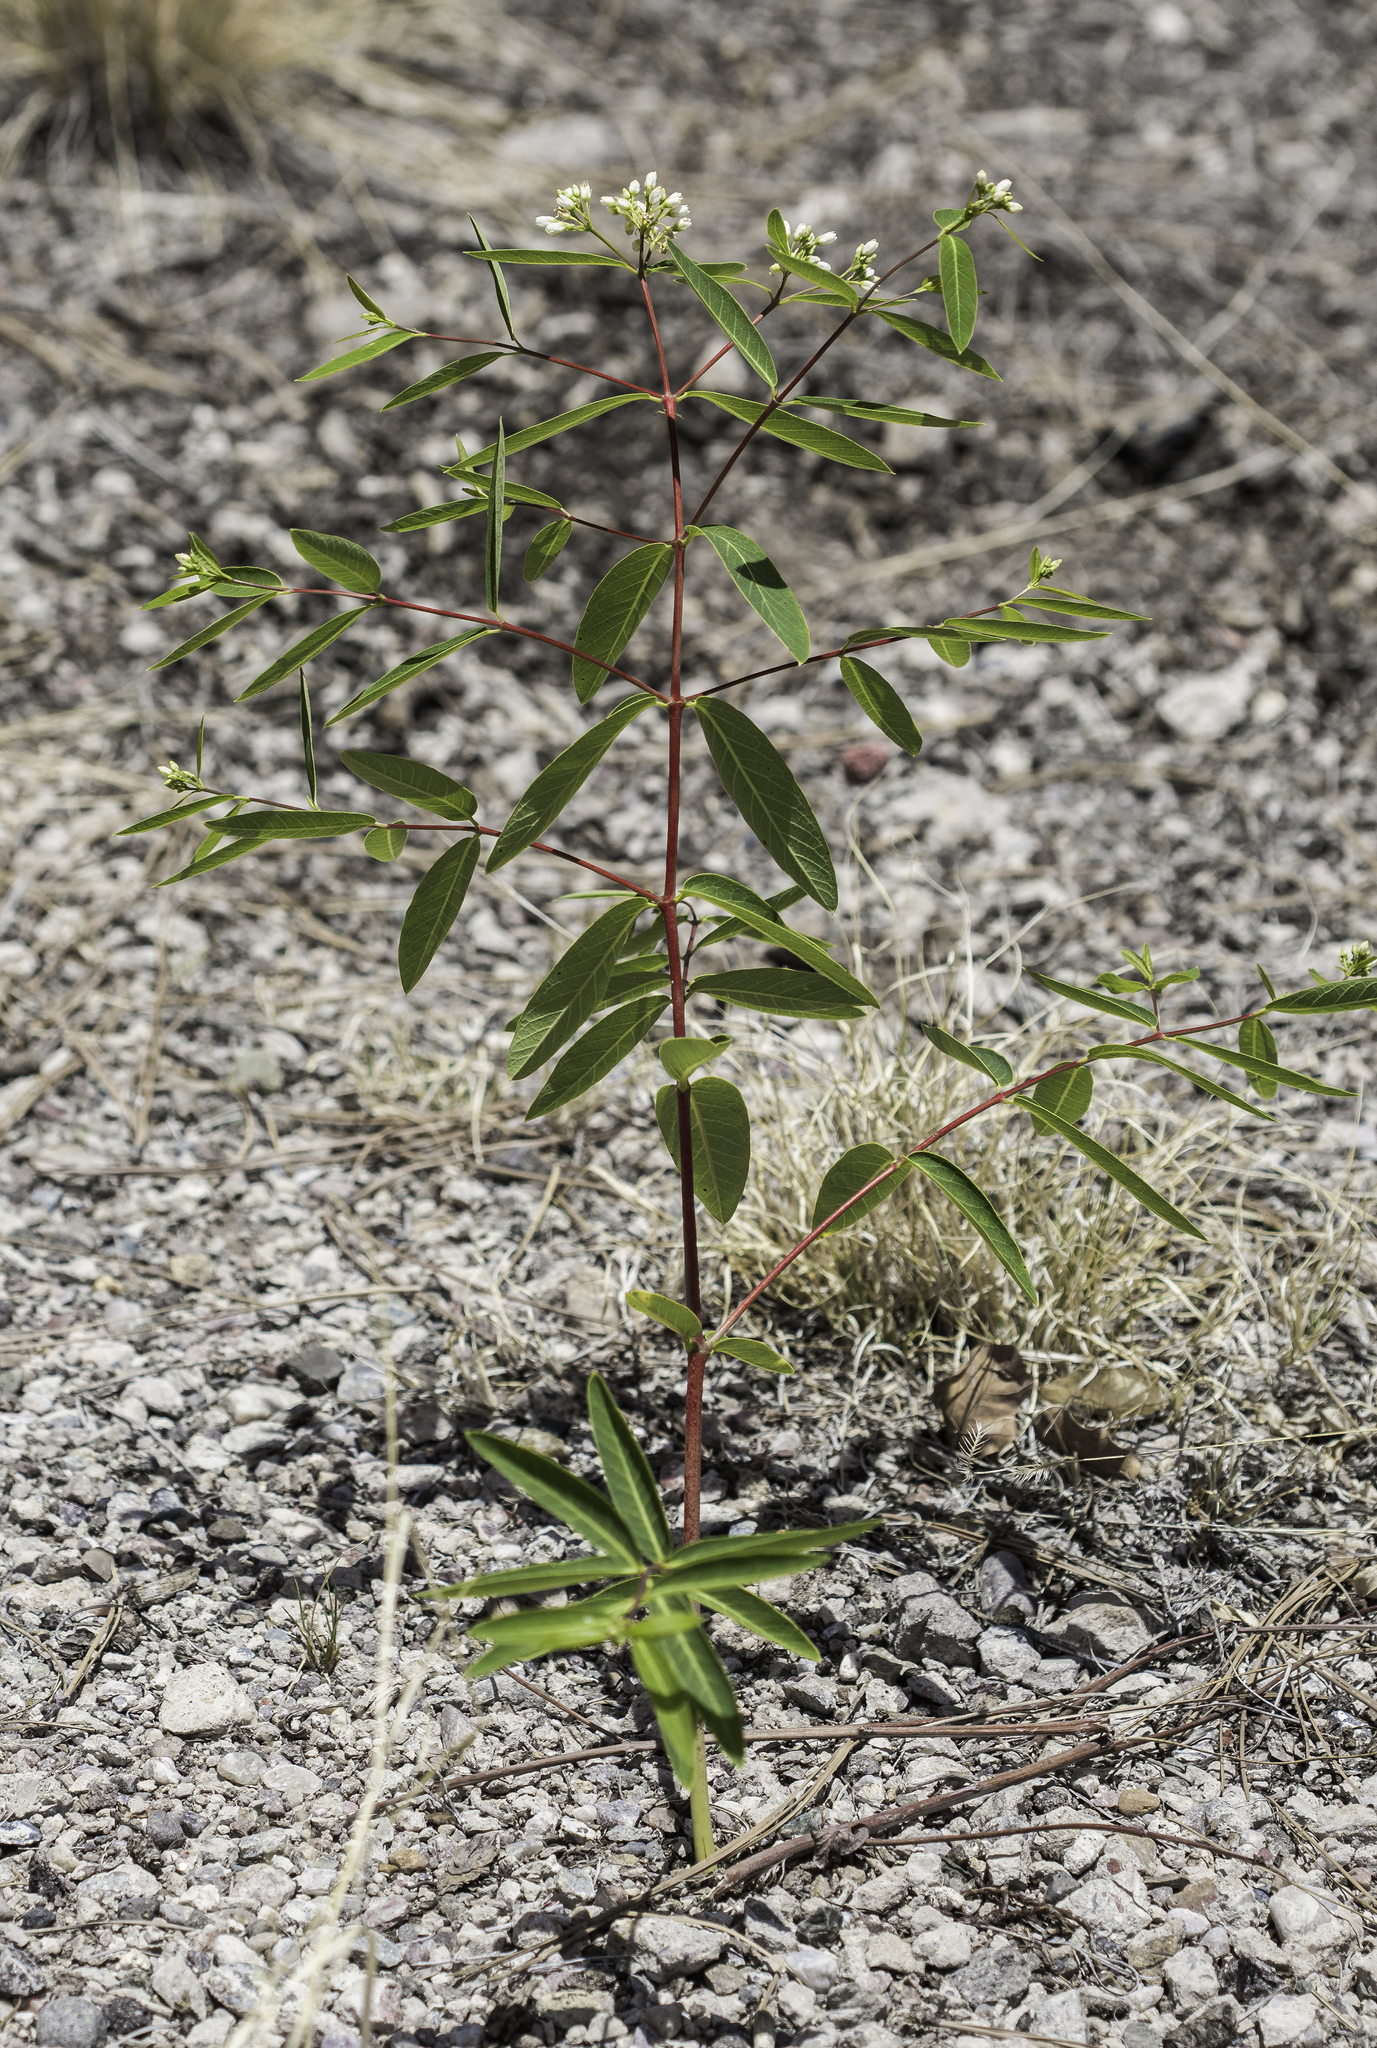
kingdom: Plantae
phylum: Tracheophyta
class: Magnoliopsida
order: Gentianales
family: Apocynaceae
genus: Apocynum
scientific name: Apocynum cannabinum
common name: Hemp dogbane
